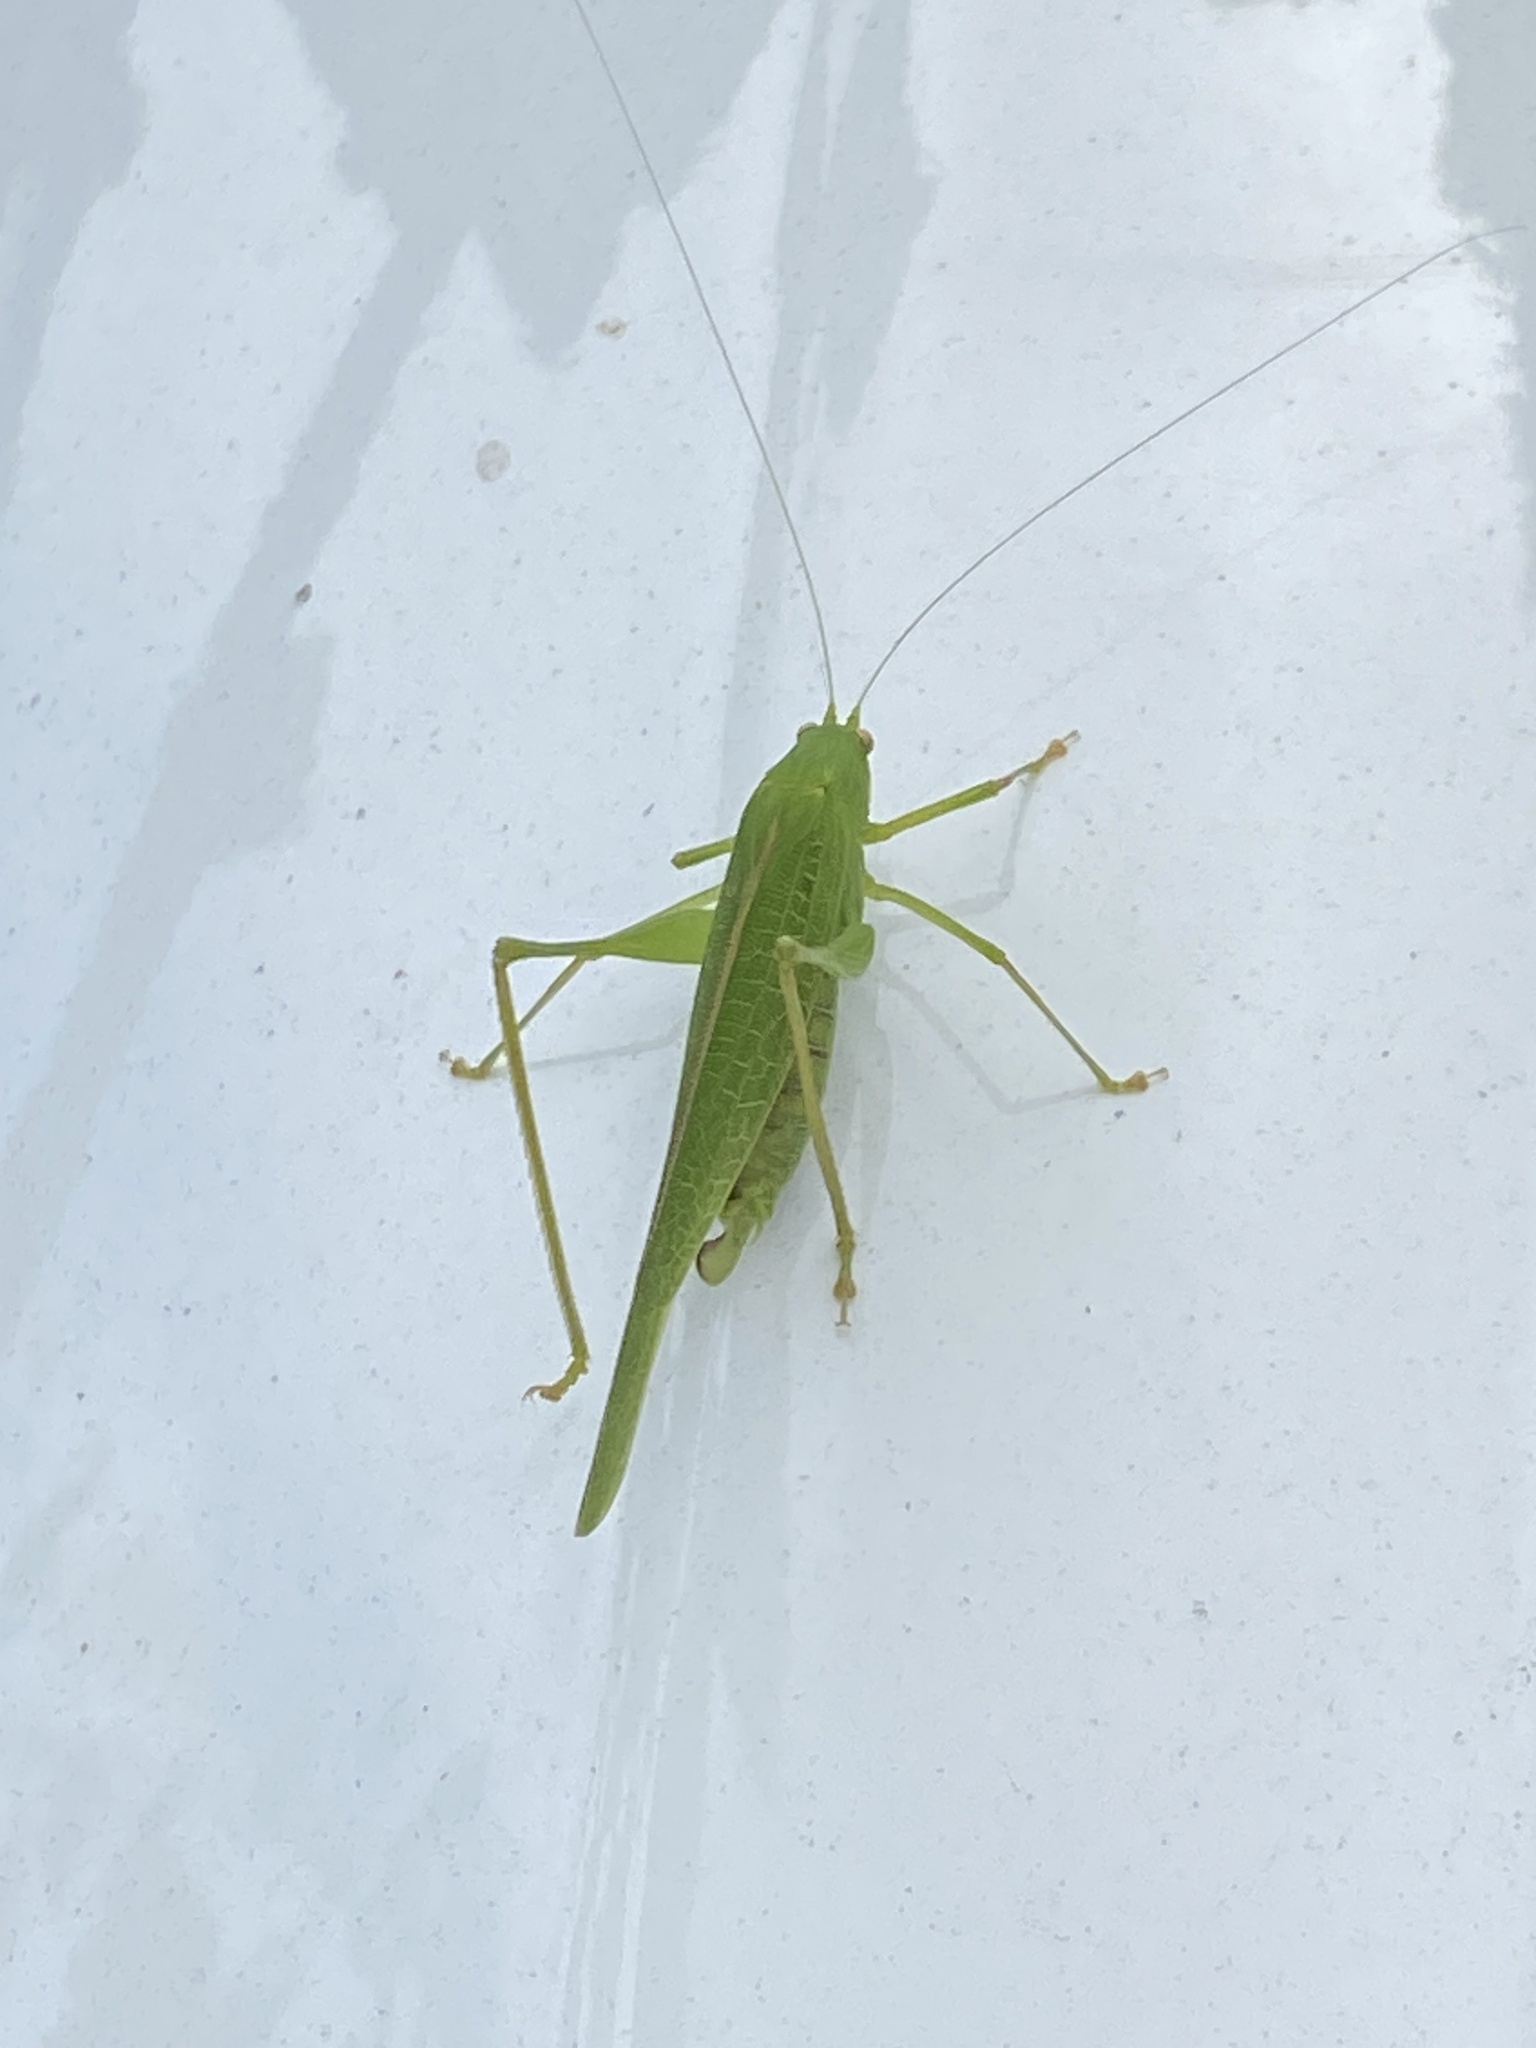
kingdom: Animalia
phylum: Arthropoda
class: Insecta
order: Orthoptera
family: Tettigoniidae
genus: Phaneroptera
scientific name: Phaneroptera nana
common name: Southern sickle bush-cricket
